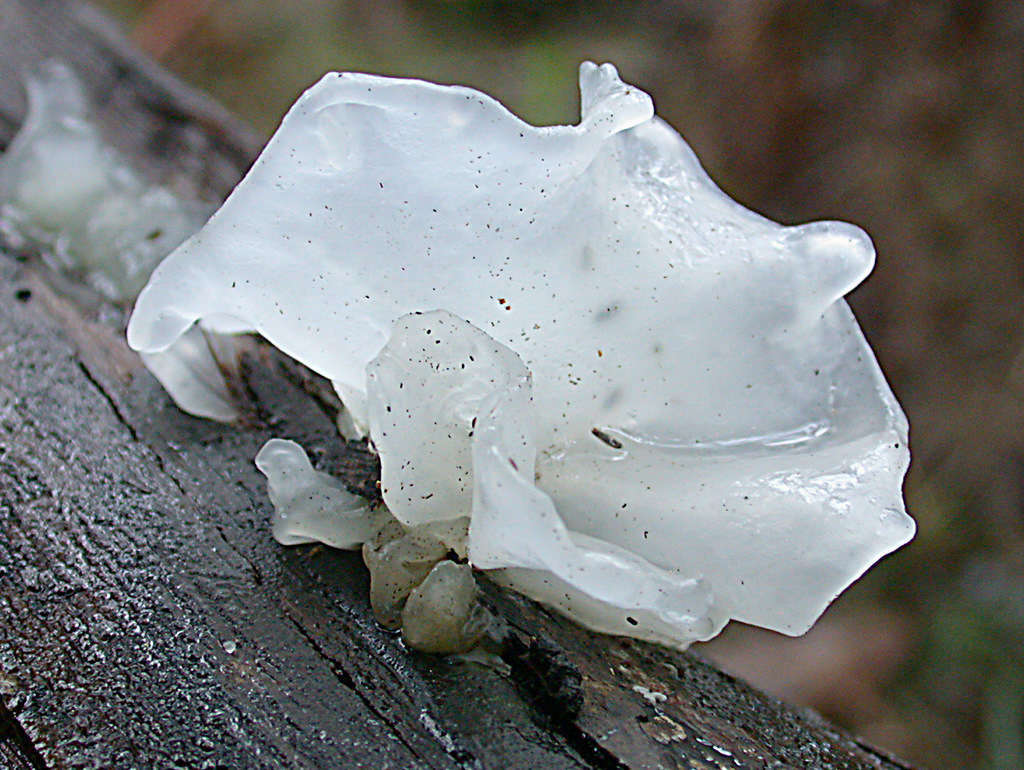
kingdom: Fungi
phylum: Basidiomycota
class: Tremellomycetes
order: Tremellales
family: Tremellaceae
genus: Tremella
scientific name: Tremella fuciformis
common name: Snow fungus
